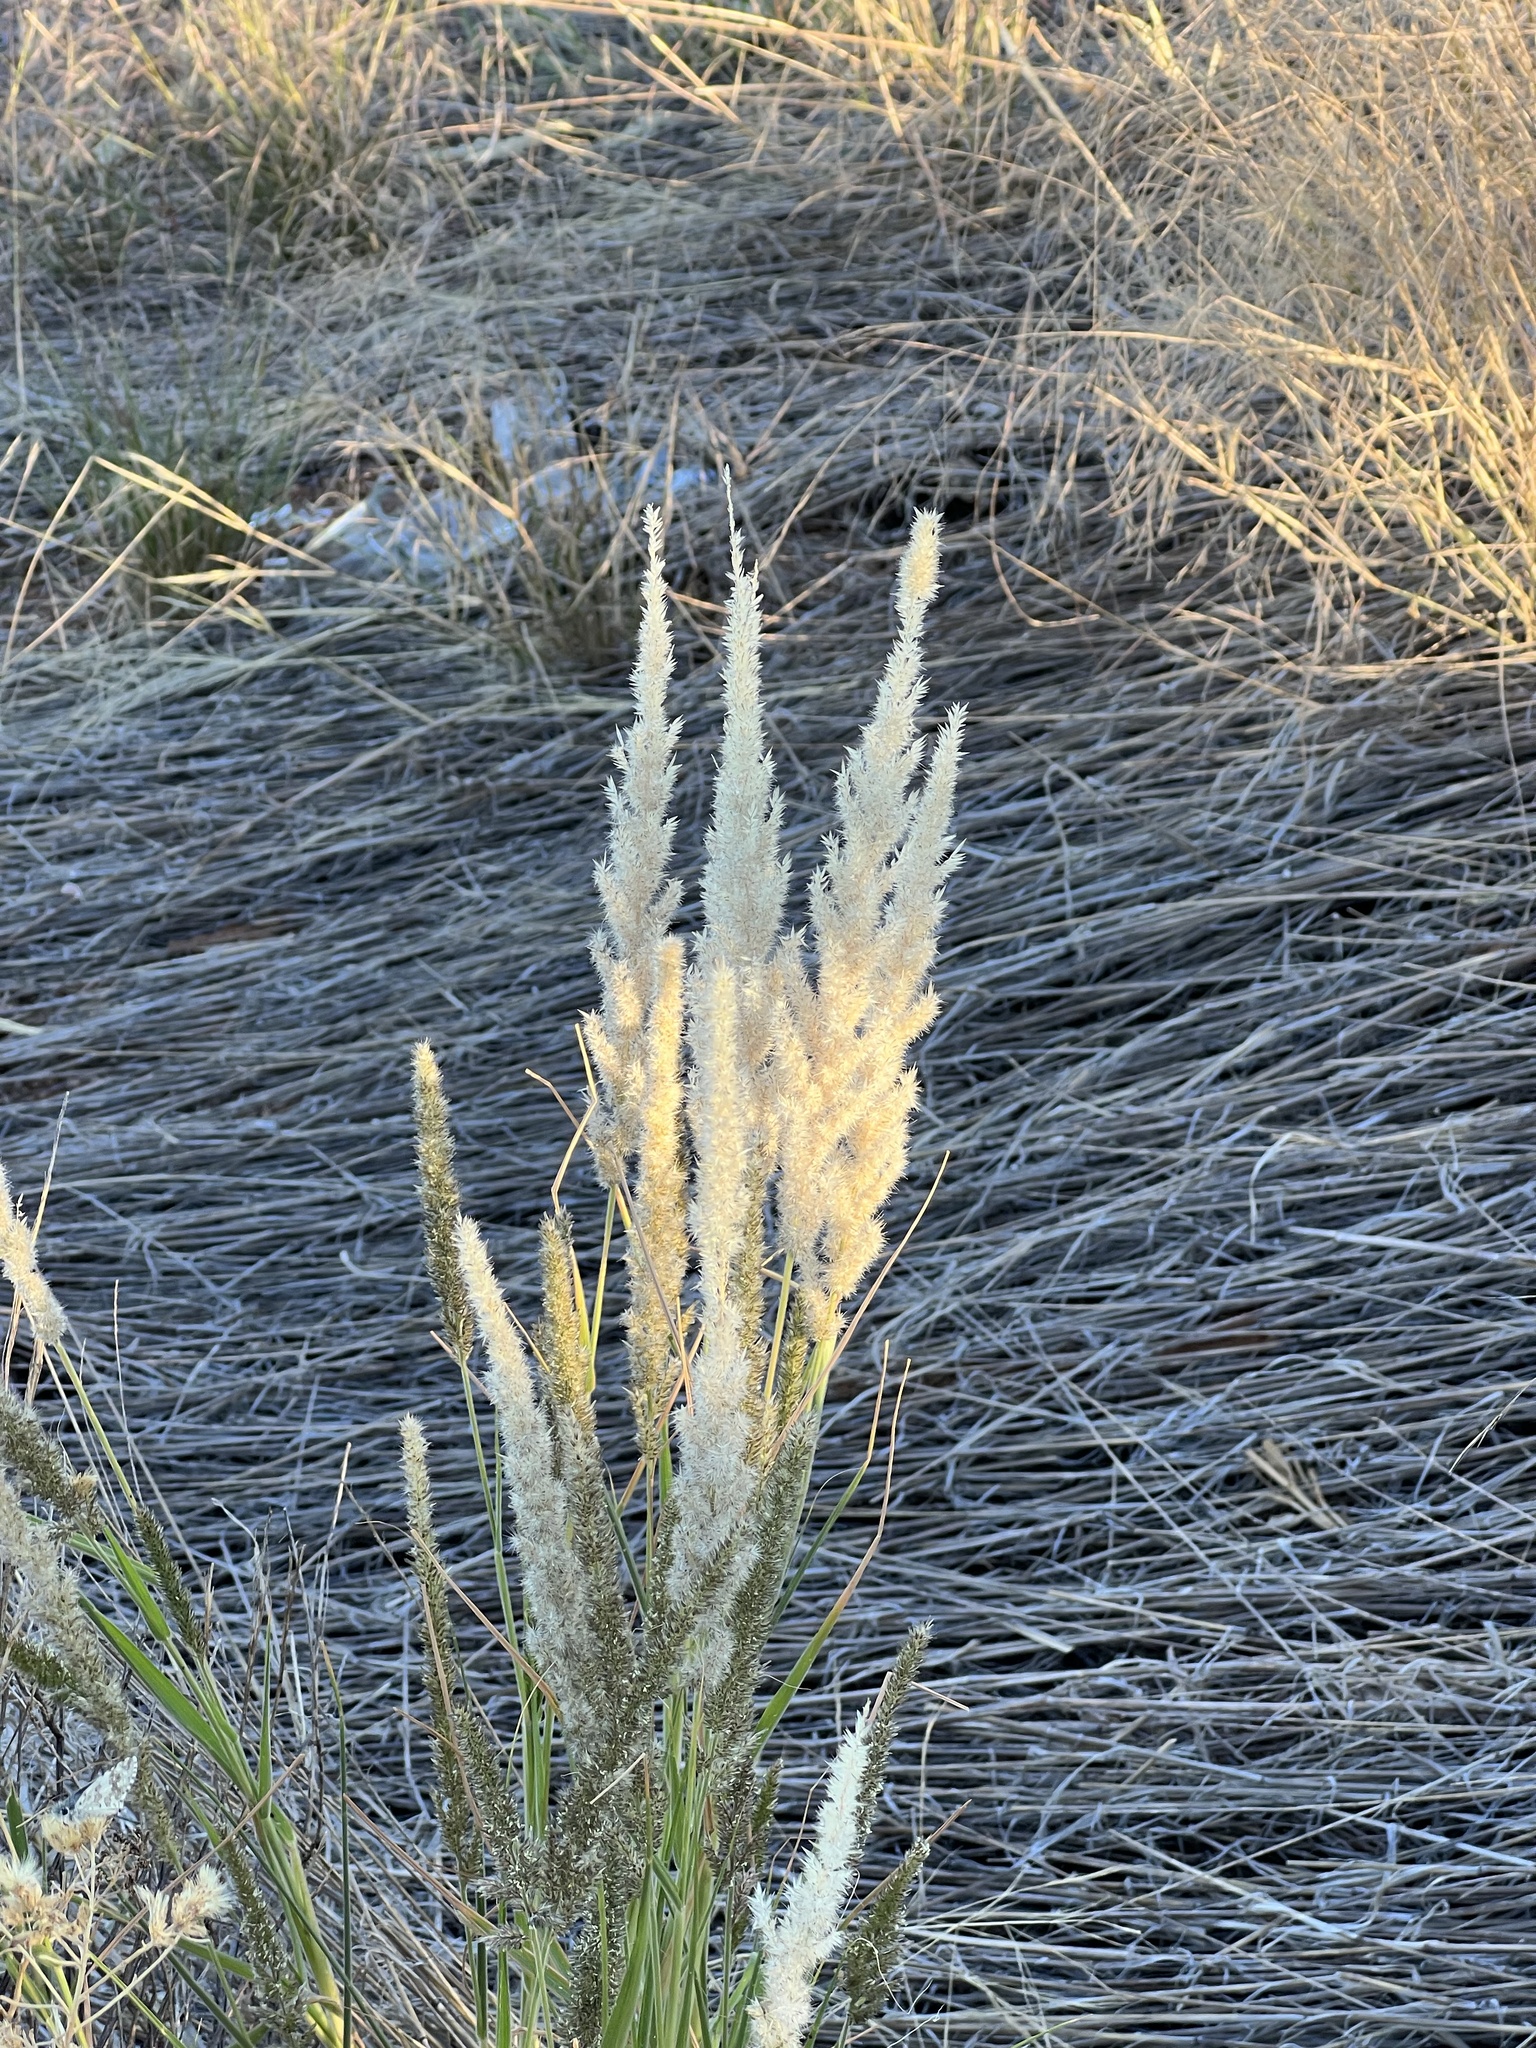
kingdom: Plantae
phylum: Tracheophyta
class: Liliopsida
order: Poales
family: Poaceae
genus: Enneapogon
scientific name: Enneapogon cenchroides
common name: Soft feather pappusgrass
